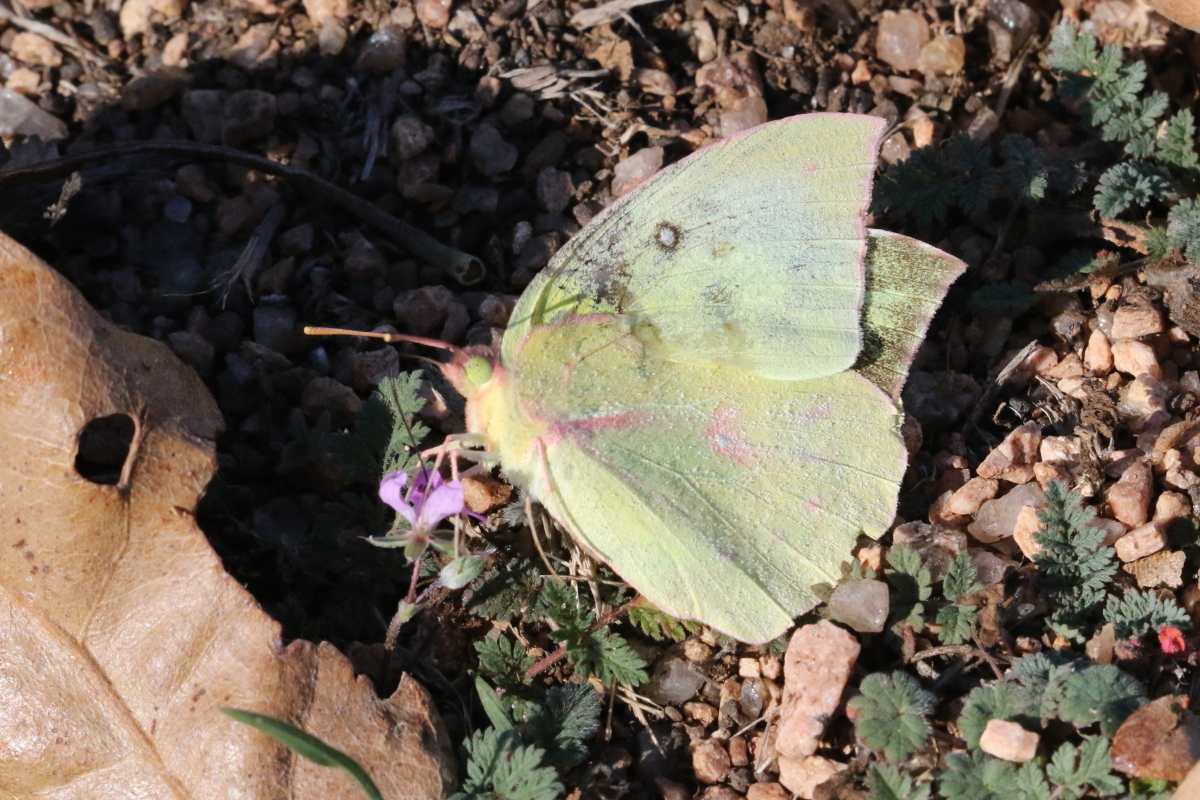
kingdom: Animalia
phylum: Arthropoda
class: Insecta
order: Lepidoptera
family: Pieridae
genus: Zerene
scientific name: Zerene cesonia
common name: Southern dogface
